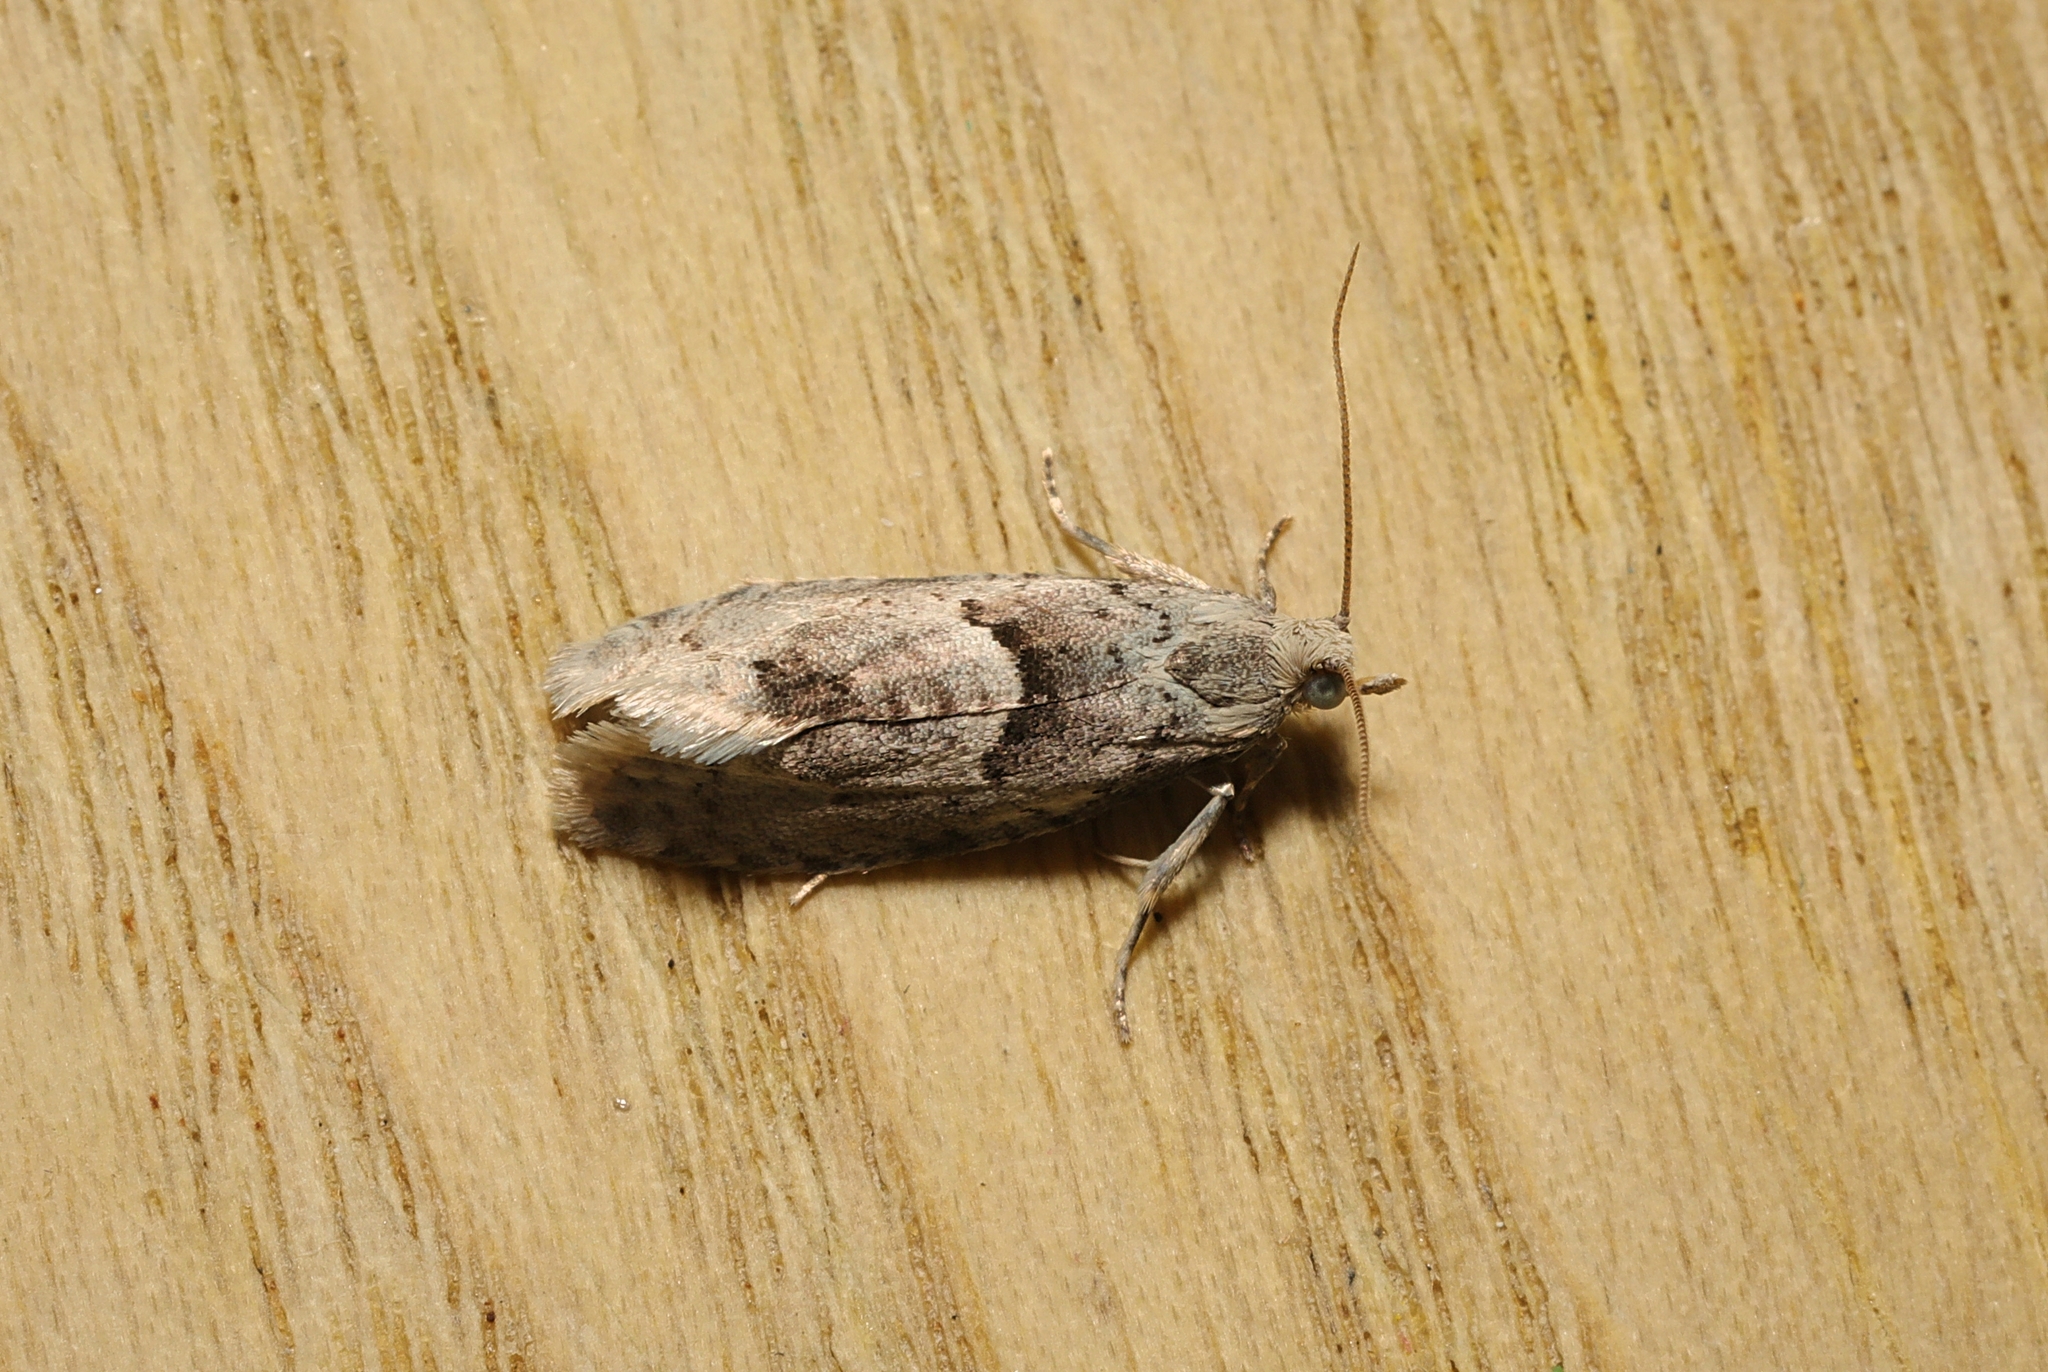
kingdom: Animalia
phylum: Arthropoda
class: Insecta
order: Lepidoptera
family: Tortricidae
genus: Epinotia
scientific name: Epinotia bilunana
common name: Crescent bell
